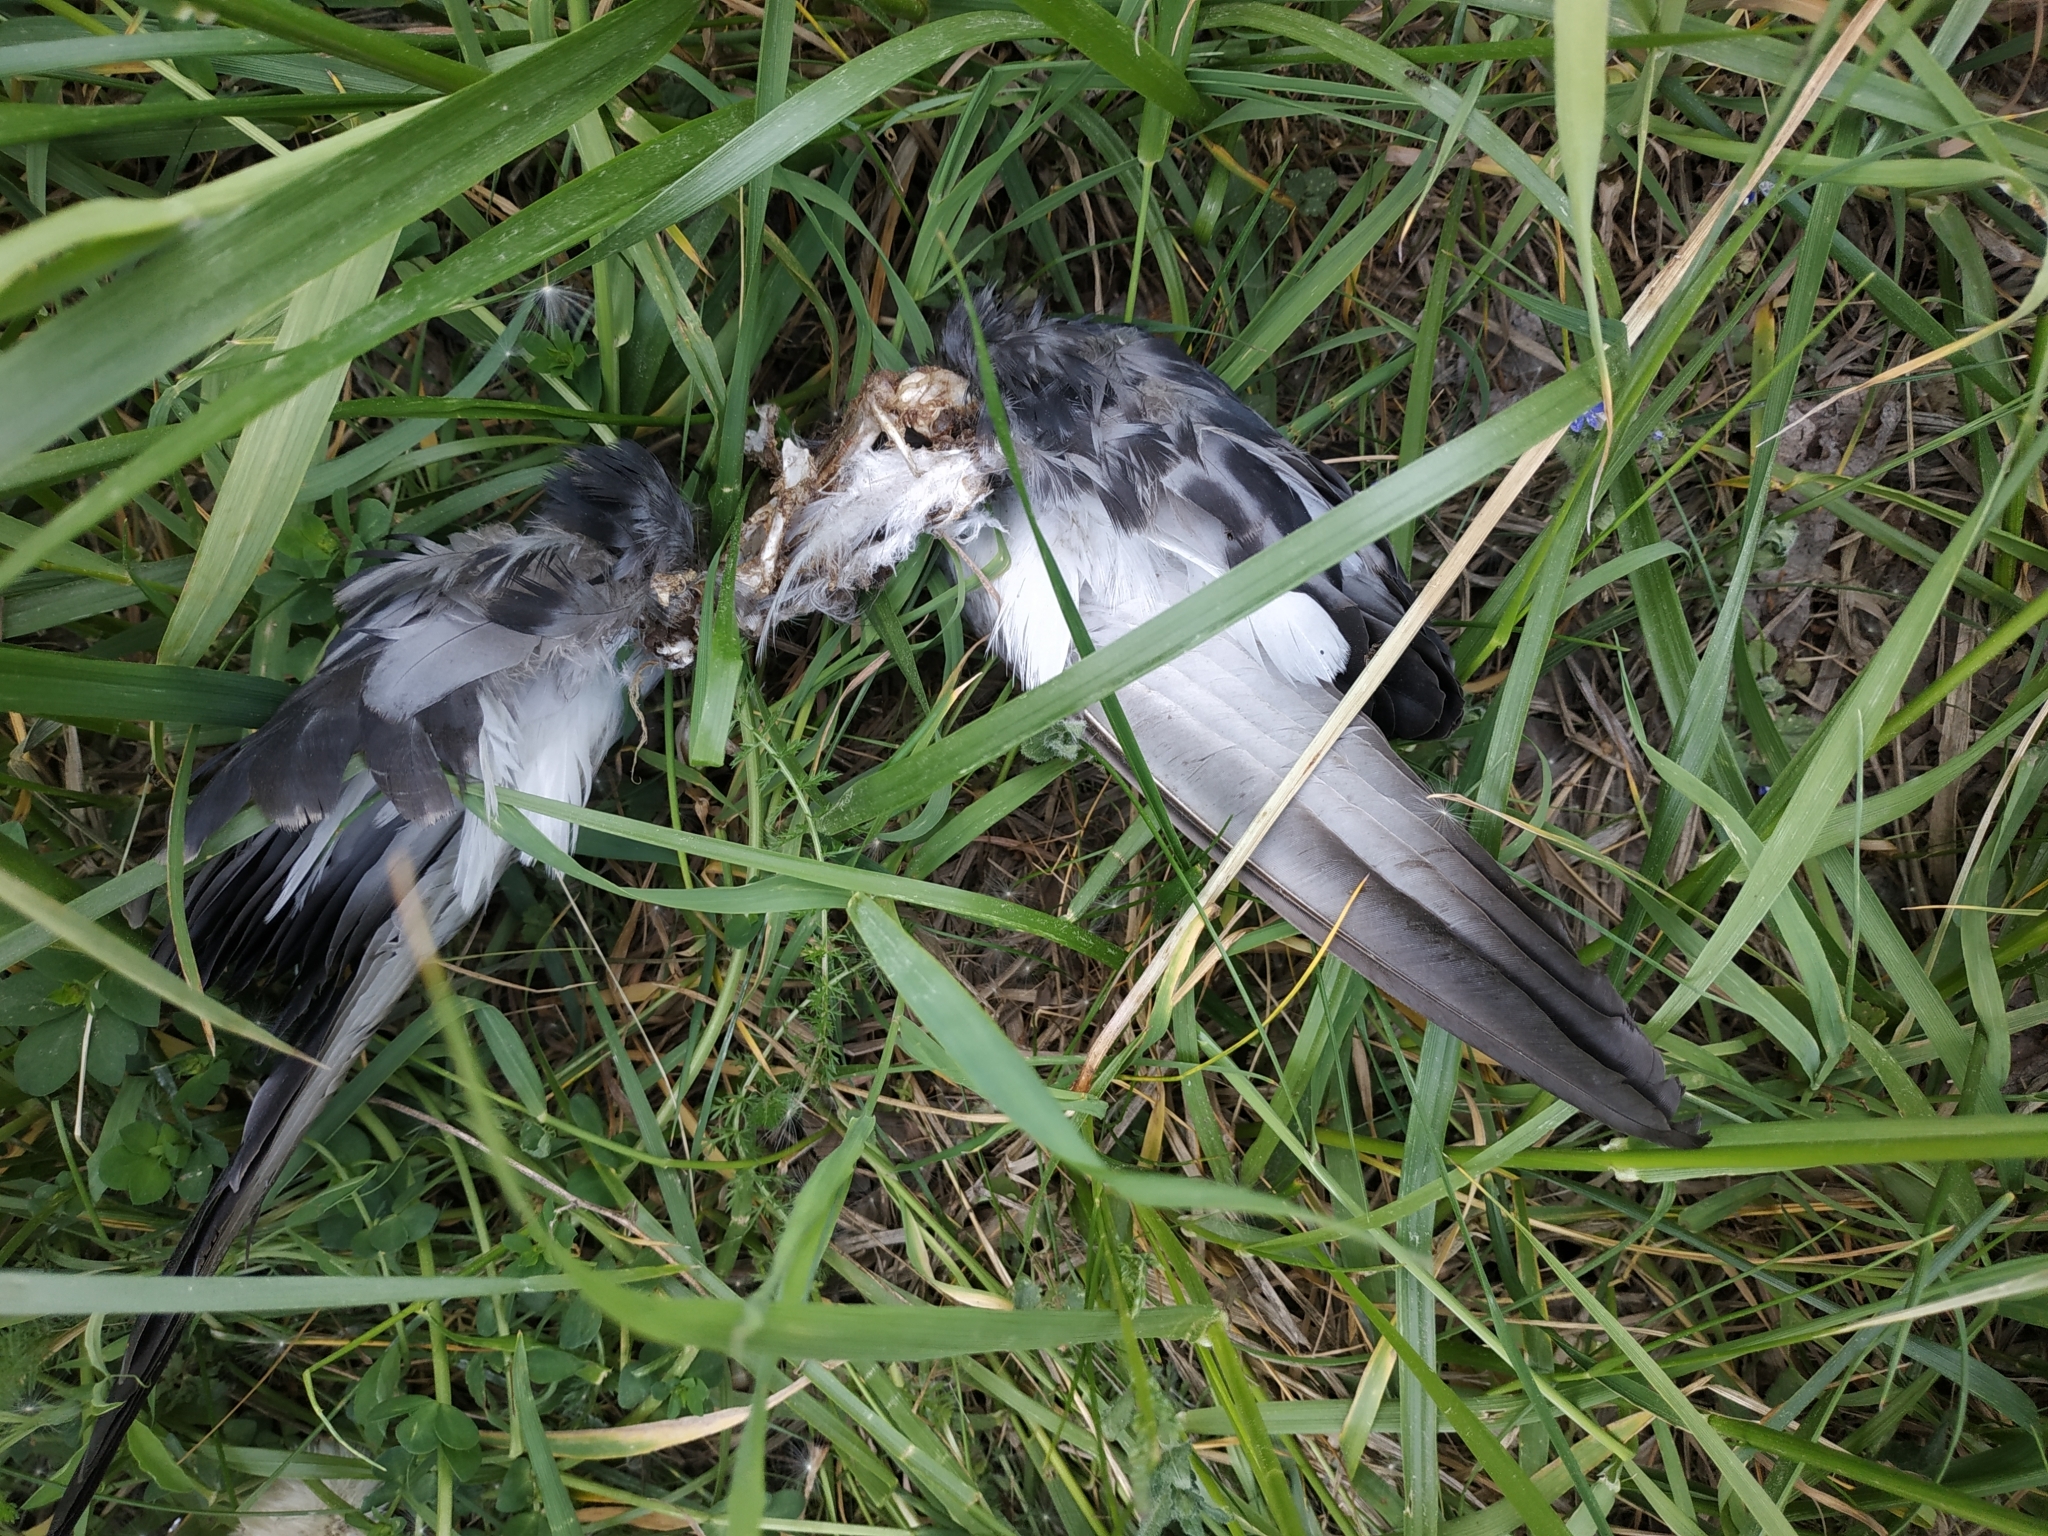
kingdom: Animalia
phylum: Chordata
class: Aves
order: Columbiformes
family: Columbidae
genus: Columba
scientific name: Columba livia
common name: Rock pigeon
